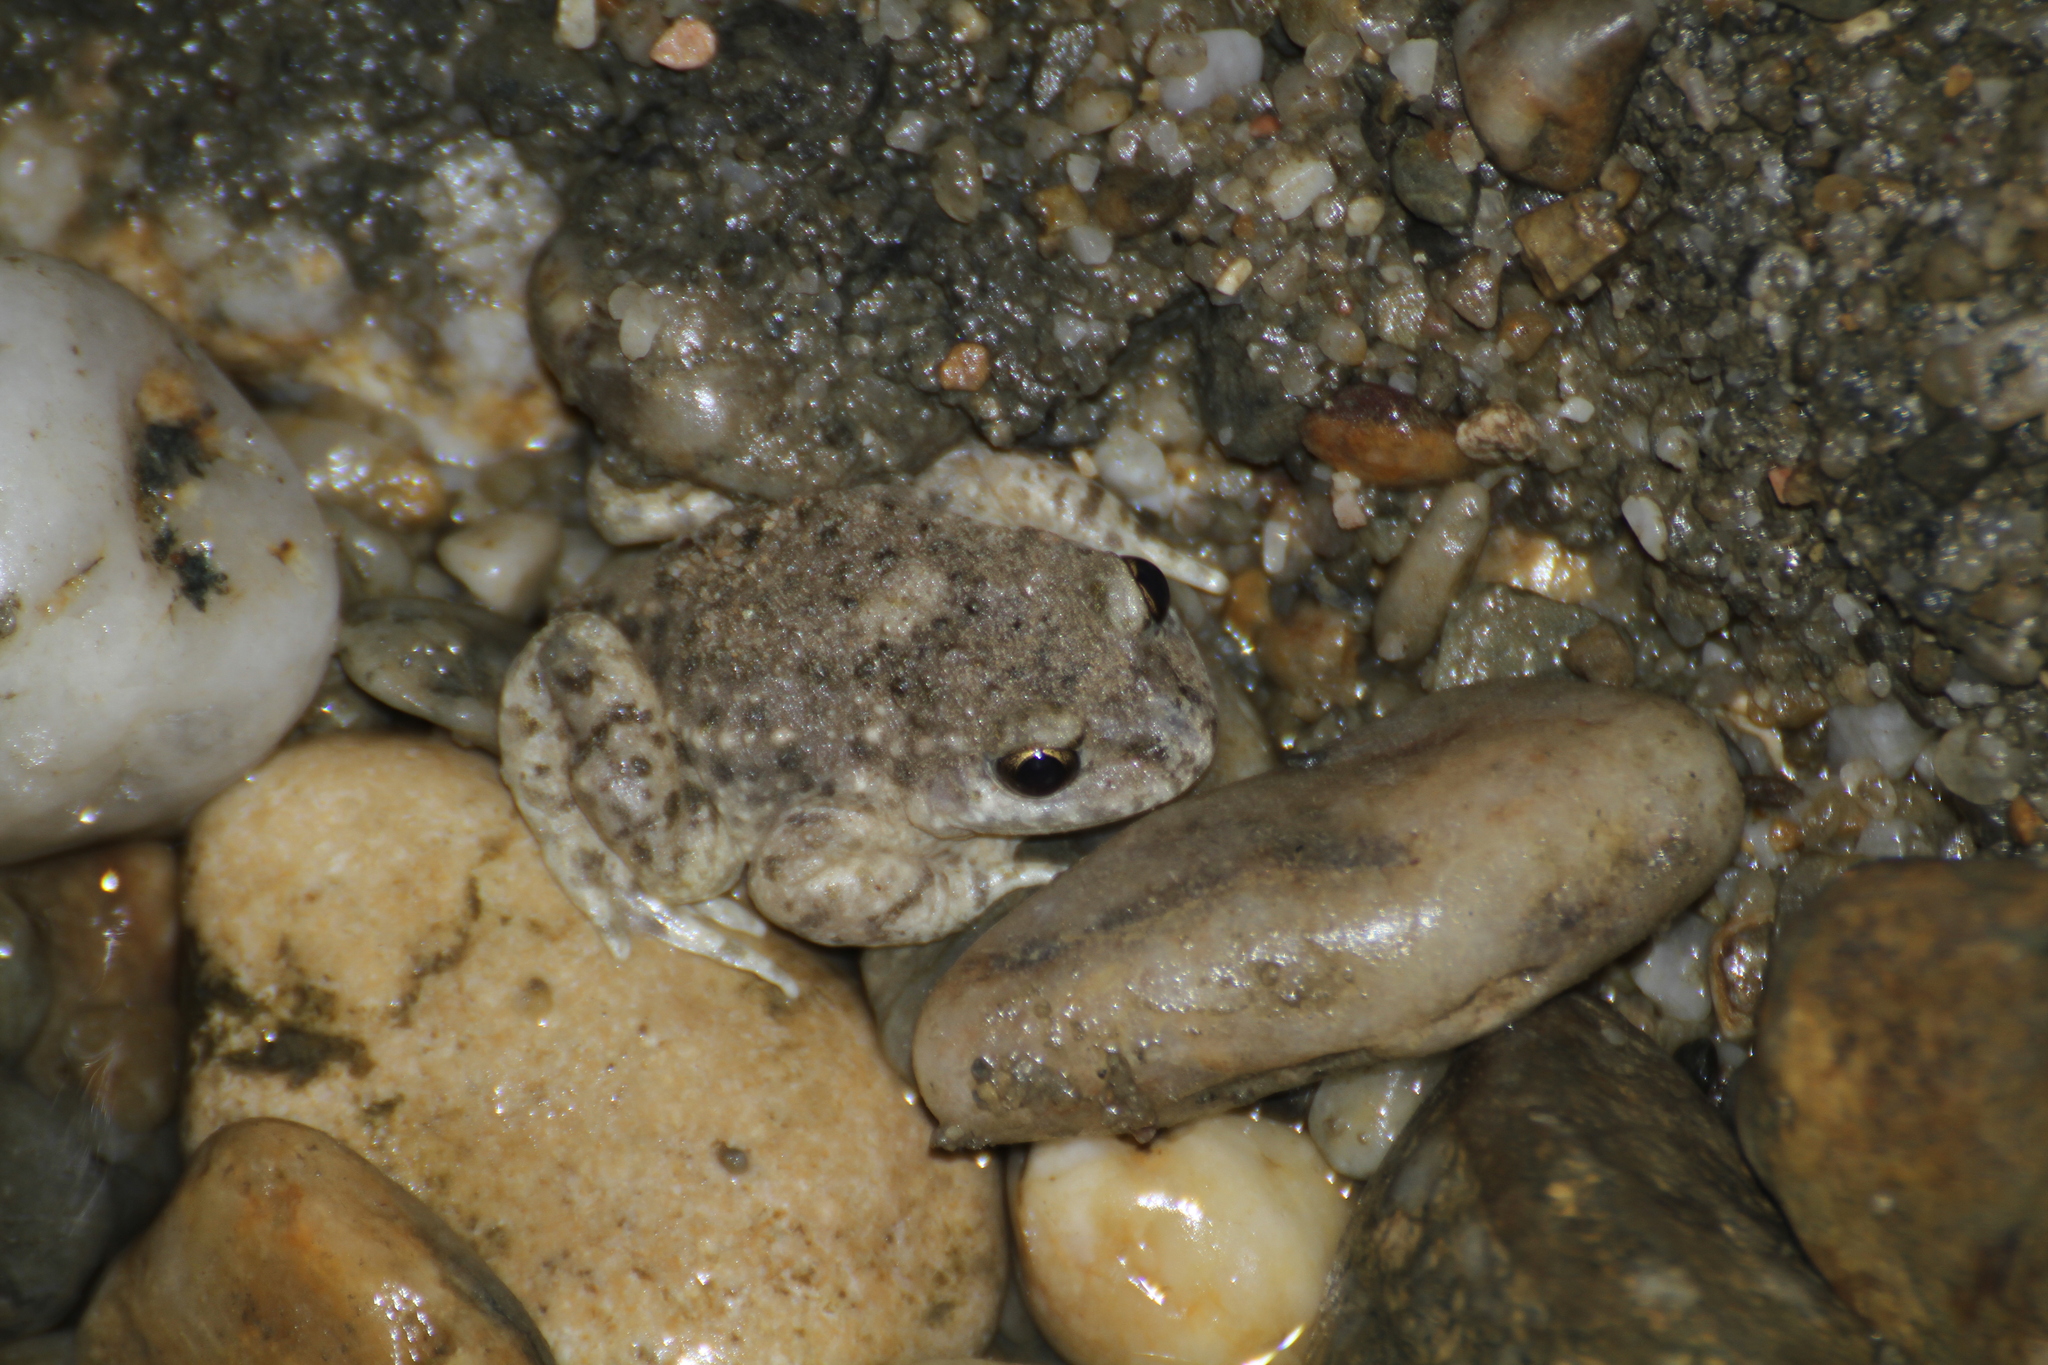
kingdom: Animalia
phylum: Chordata
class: Amphibia
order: Anura
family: Alytidae
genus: Alytes
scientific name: Alytes obstetricans
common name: Midwife toad
